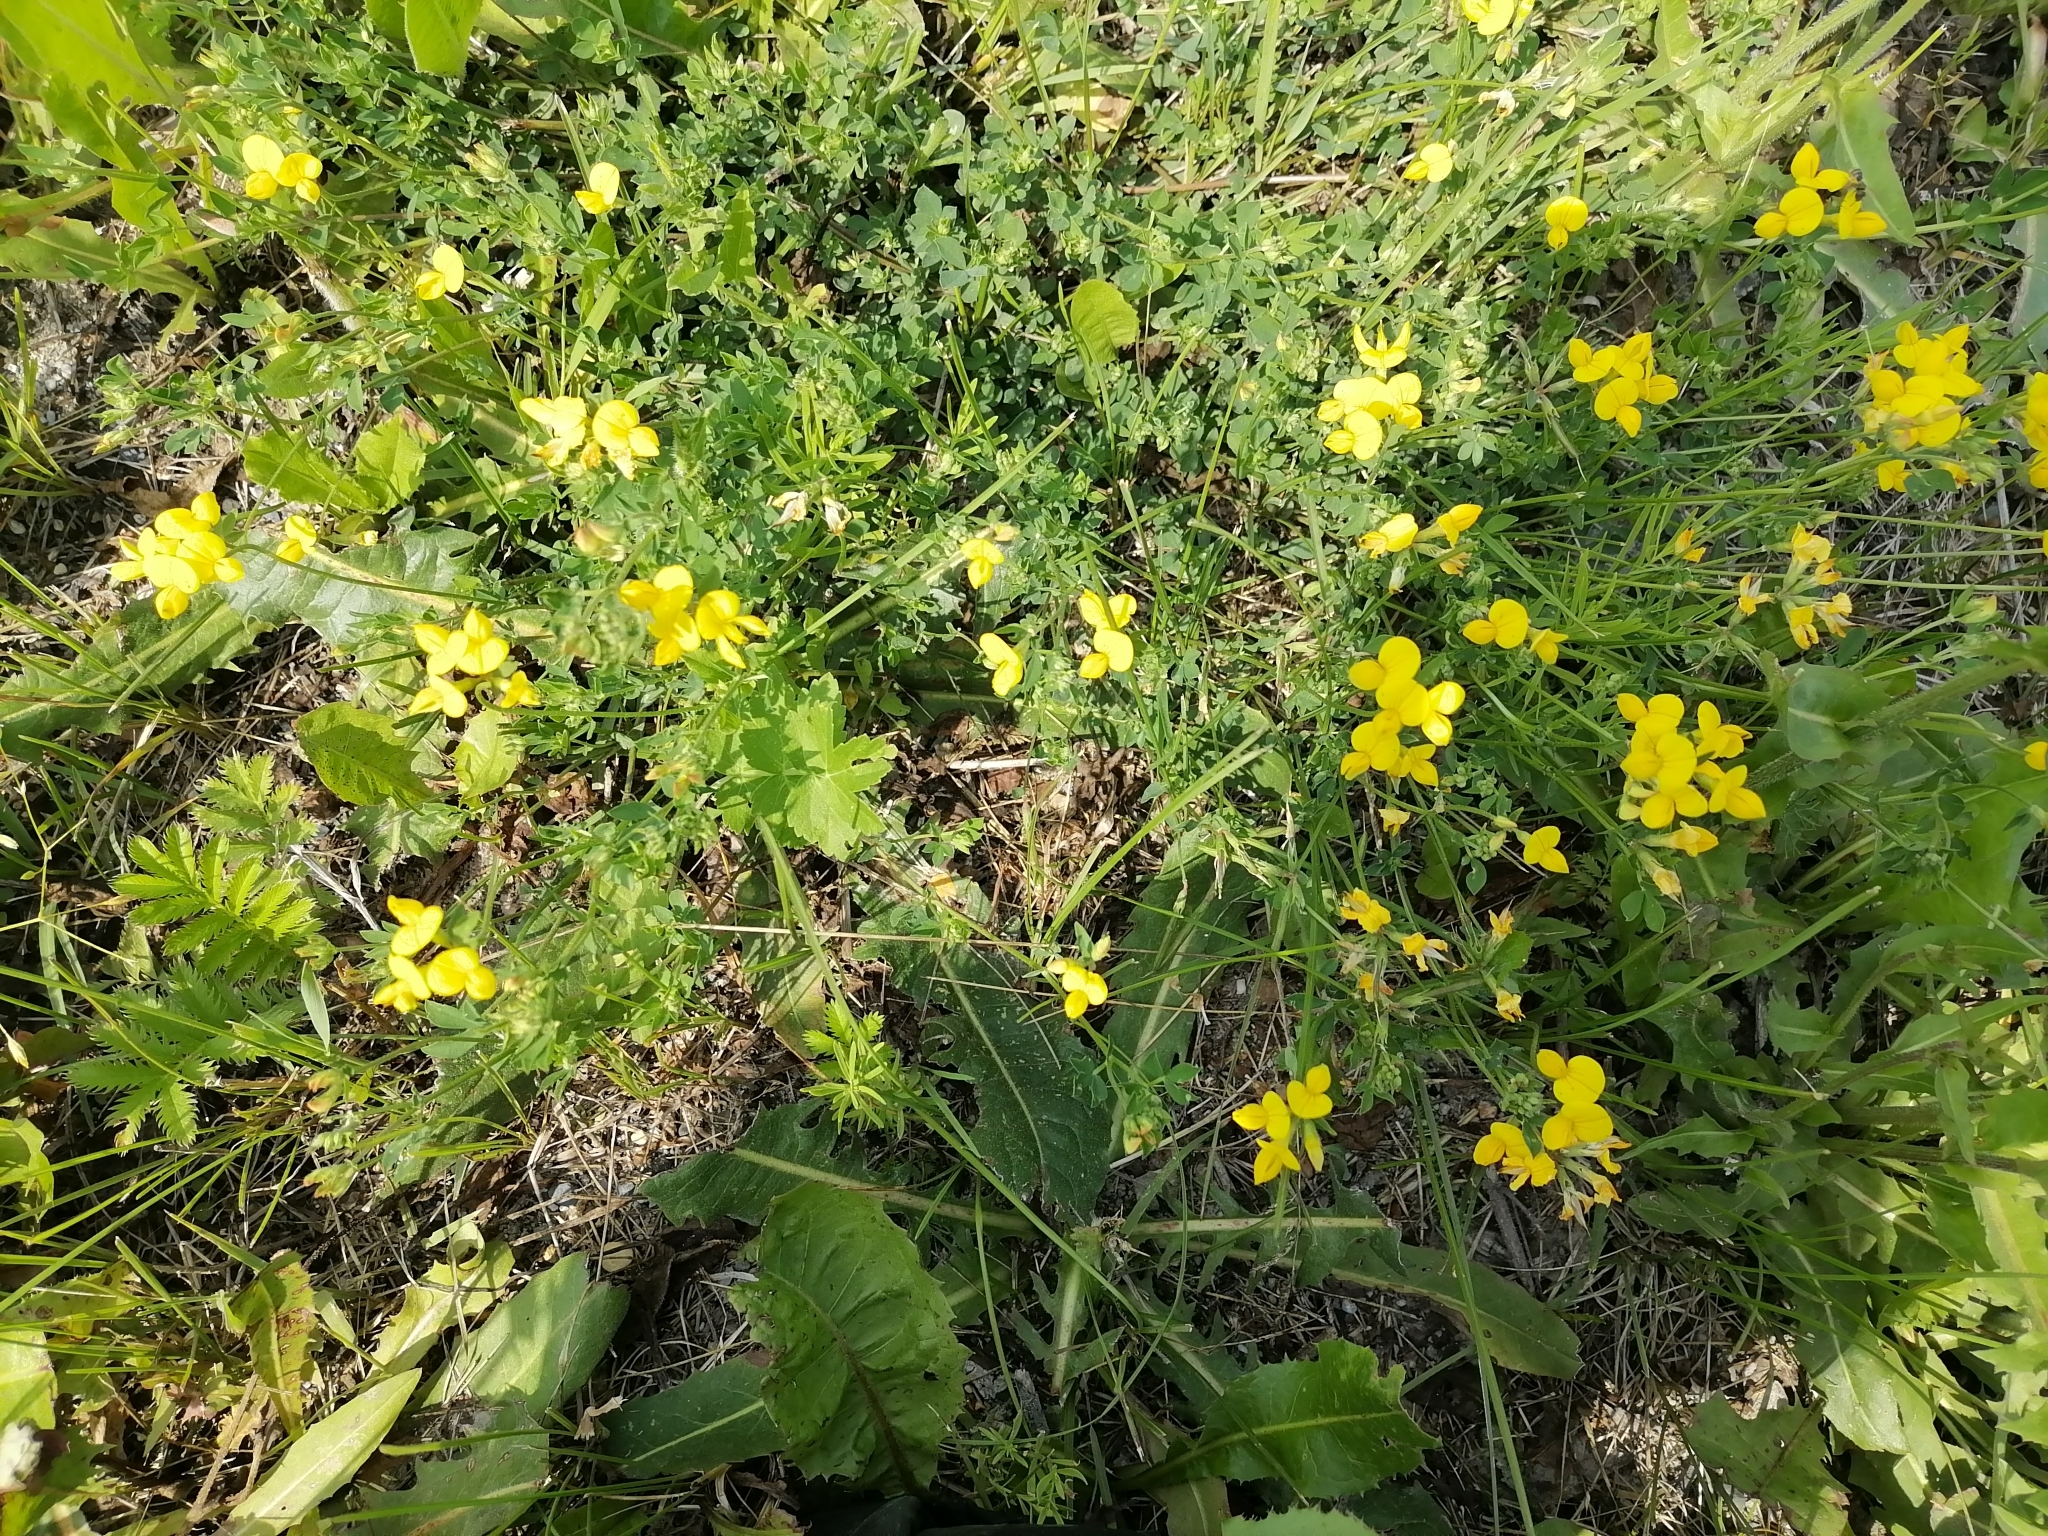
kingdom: Plantae
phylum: Tracheophyta
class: Magnoliopsida
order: Fabales
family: Fabaceae
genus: Lotus
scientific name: Lotus corniculatus
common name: Common bird's-foot-trefoil
